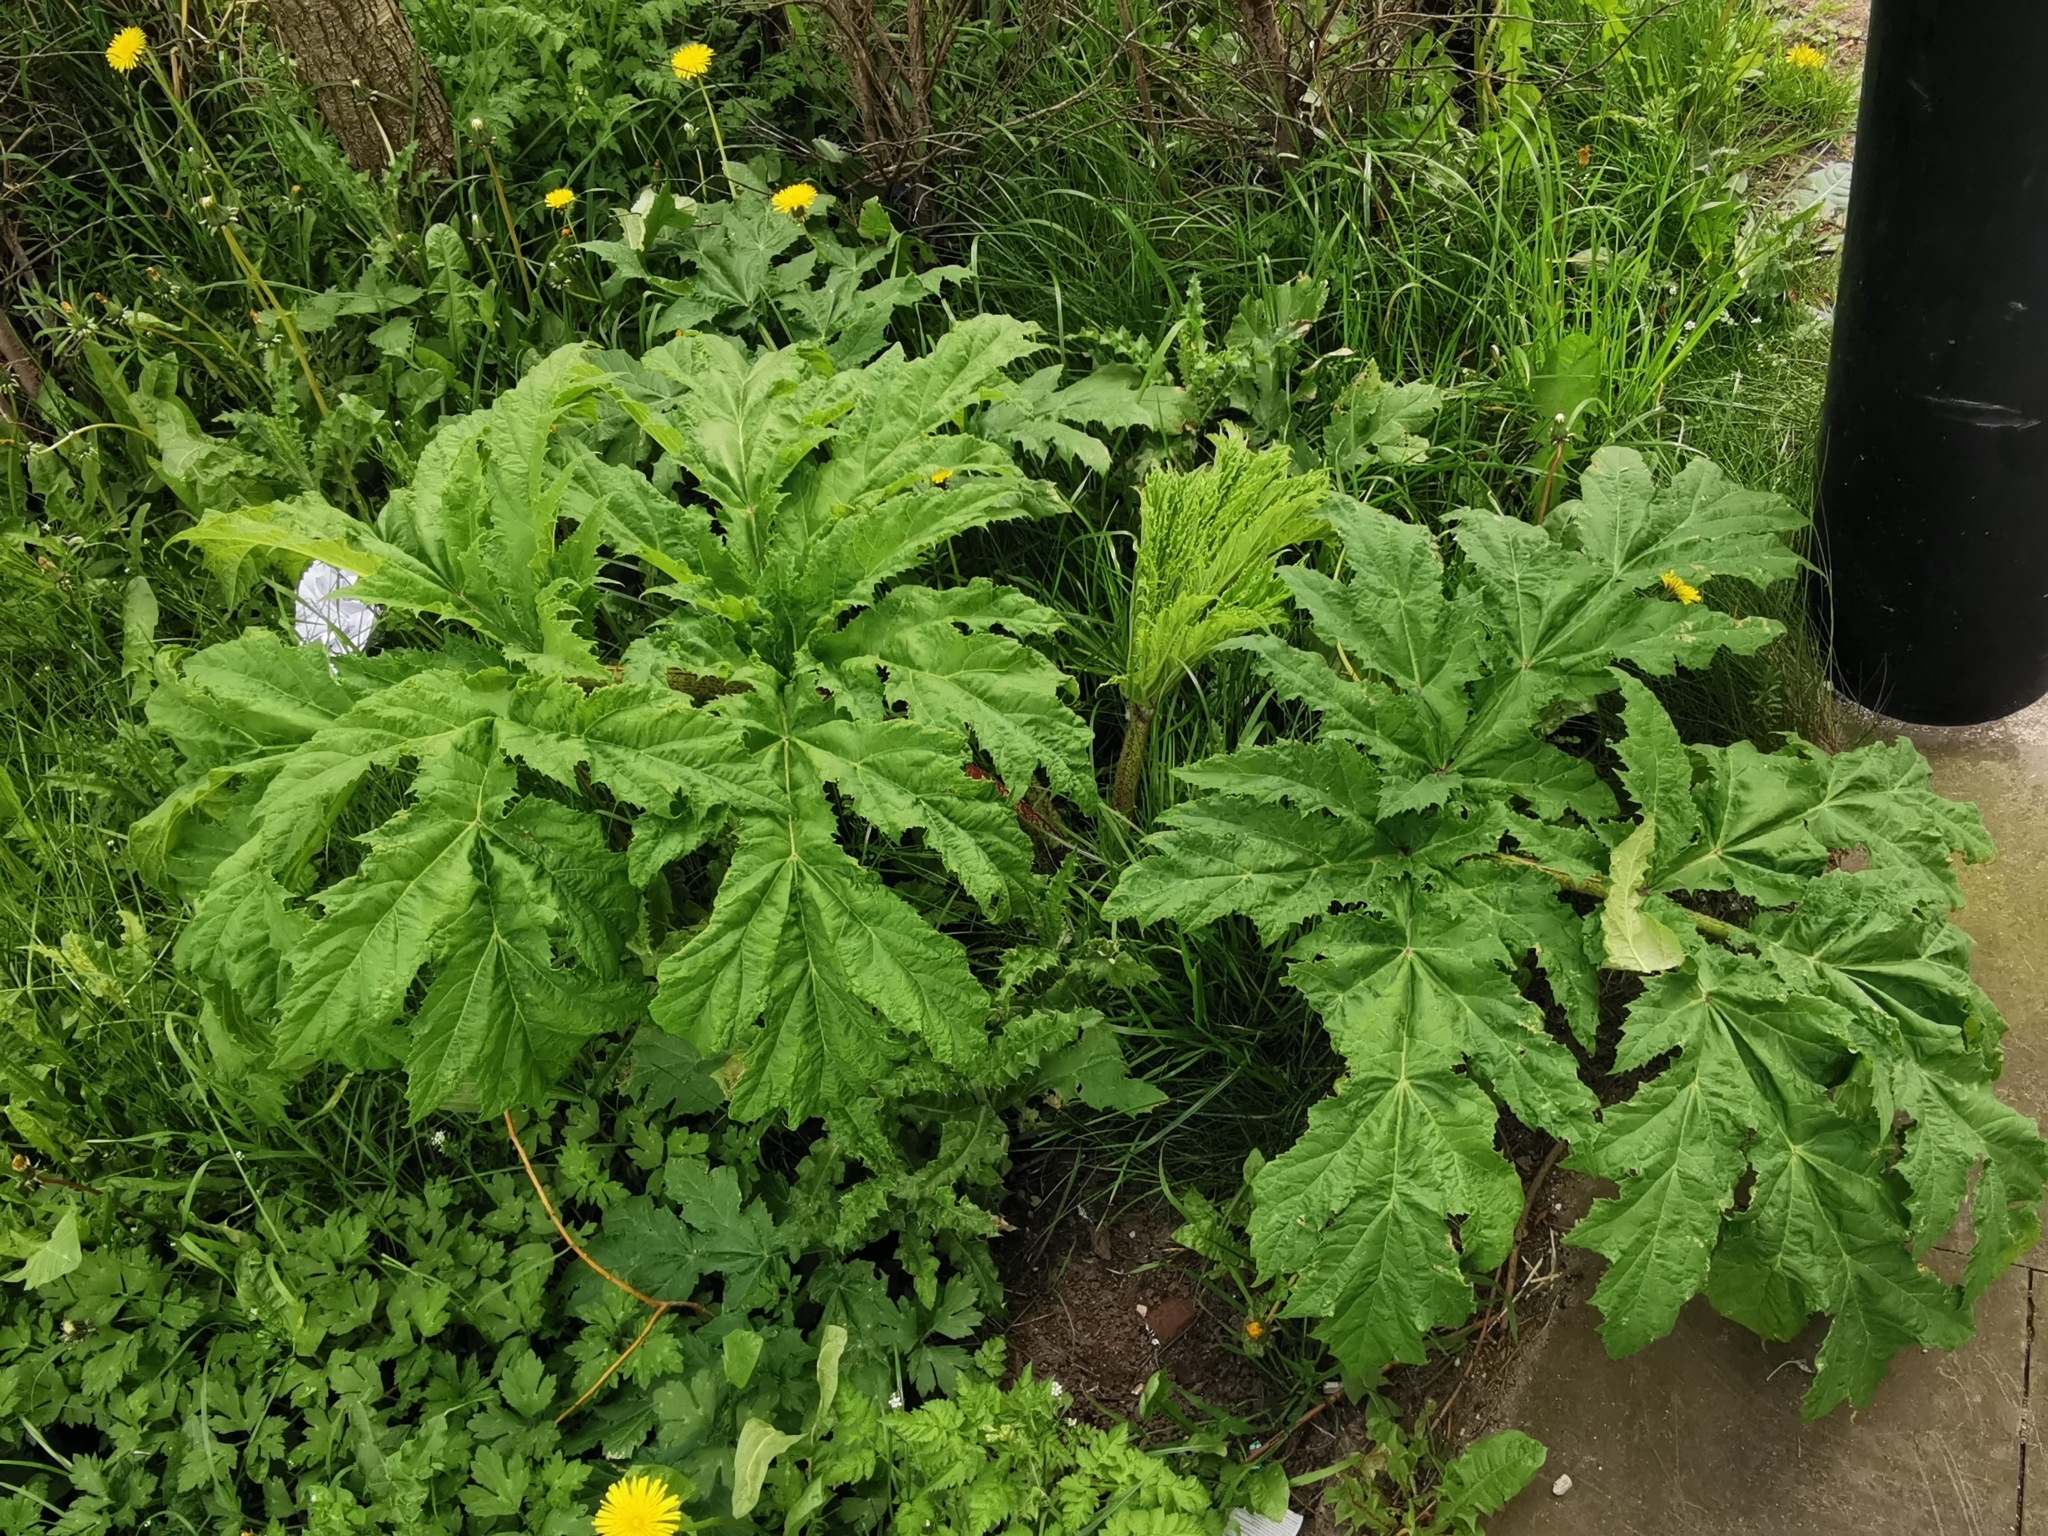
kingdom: Plantae
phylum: Tracheophyta
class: Magnoliopsida
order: Apiales
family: Apiaceae
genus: Heracleum
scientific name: Heracleum mantegazzianum
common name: Giant hogweed
